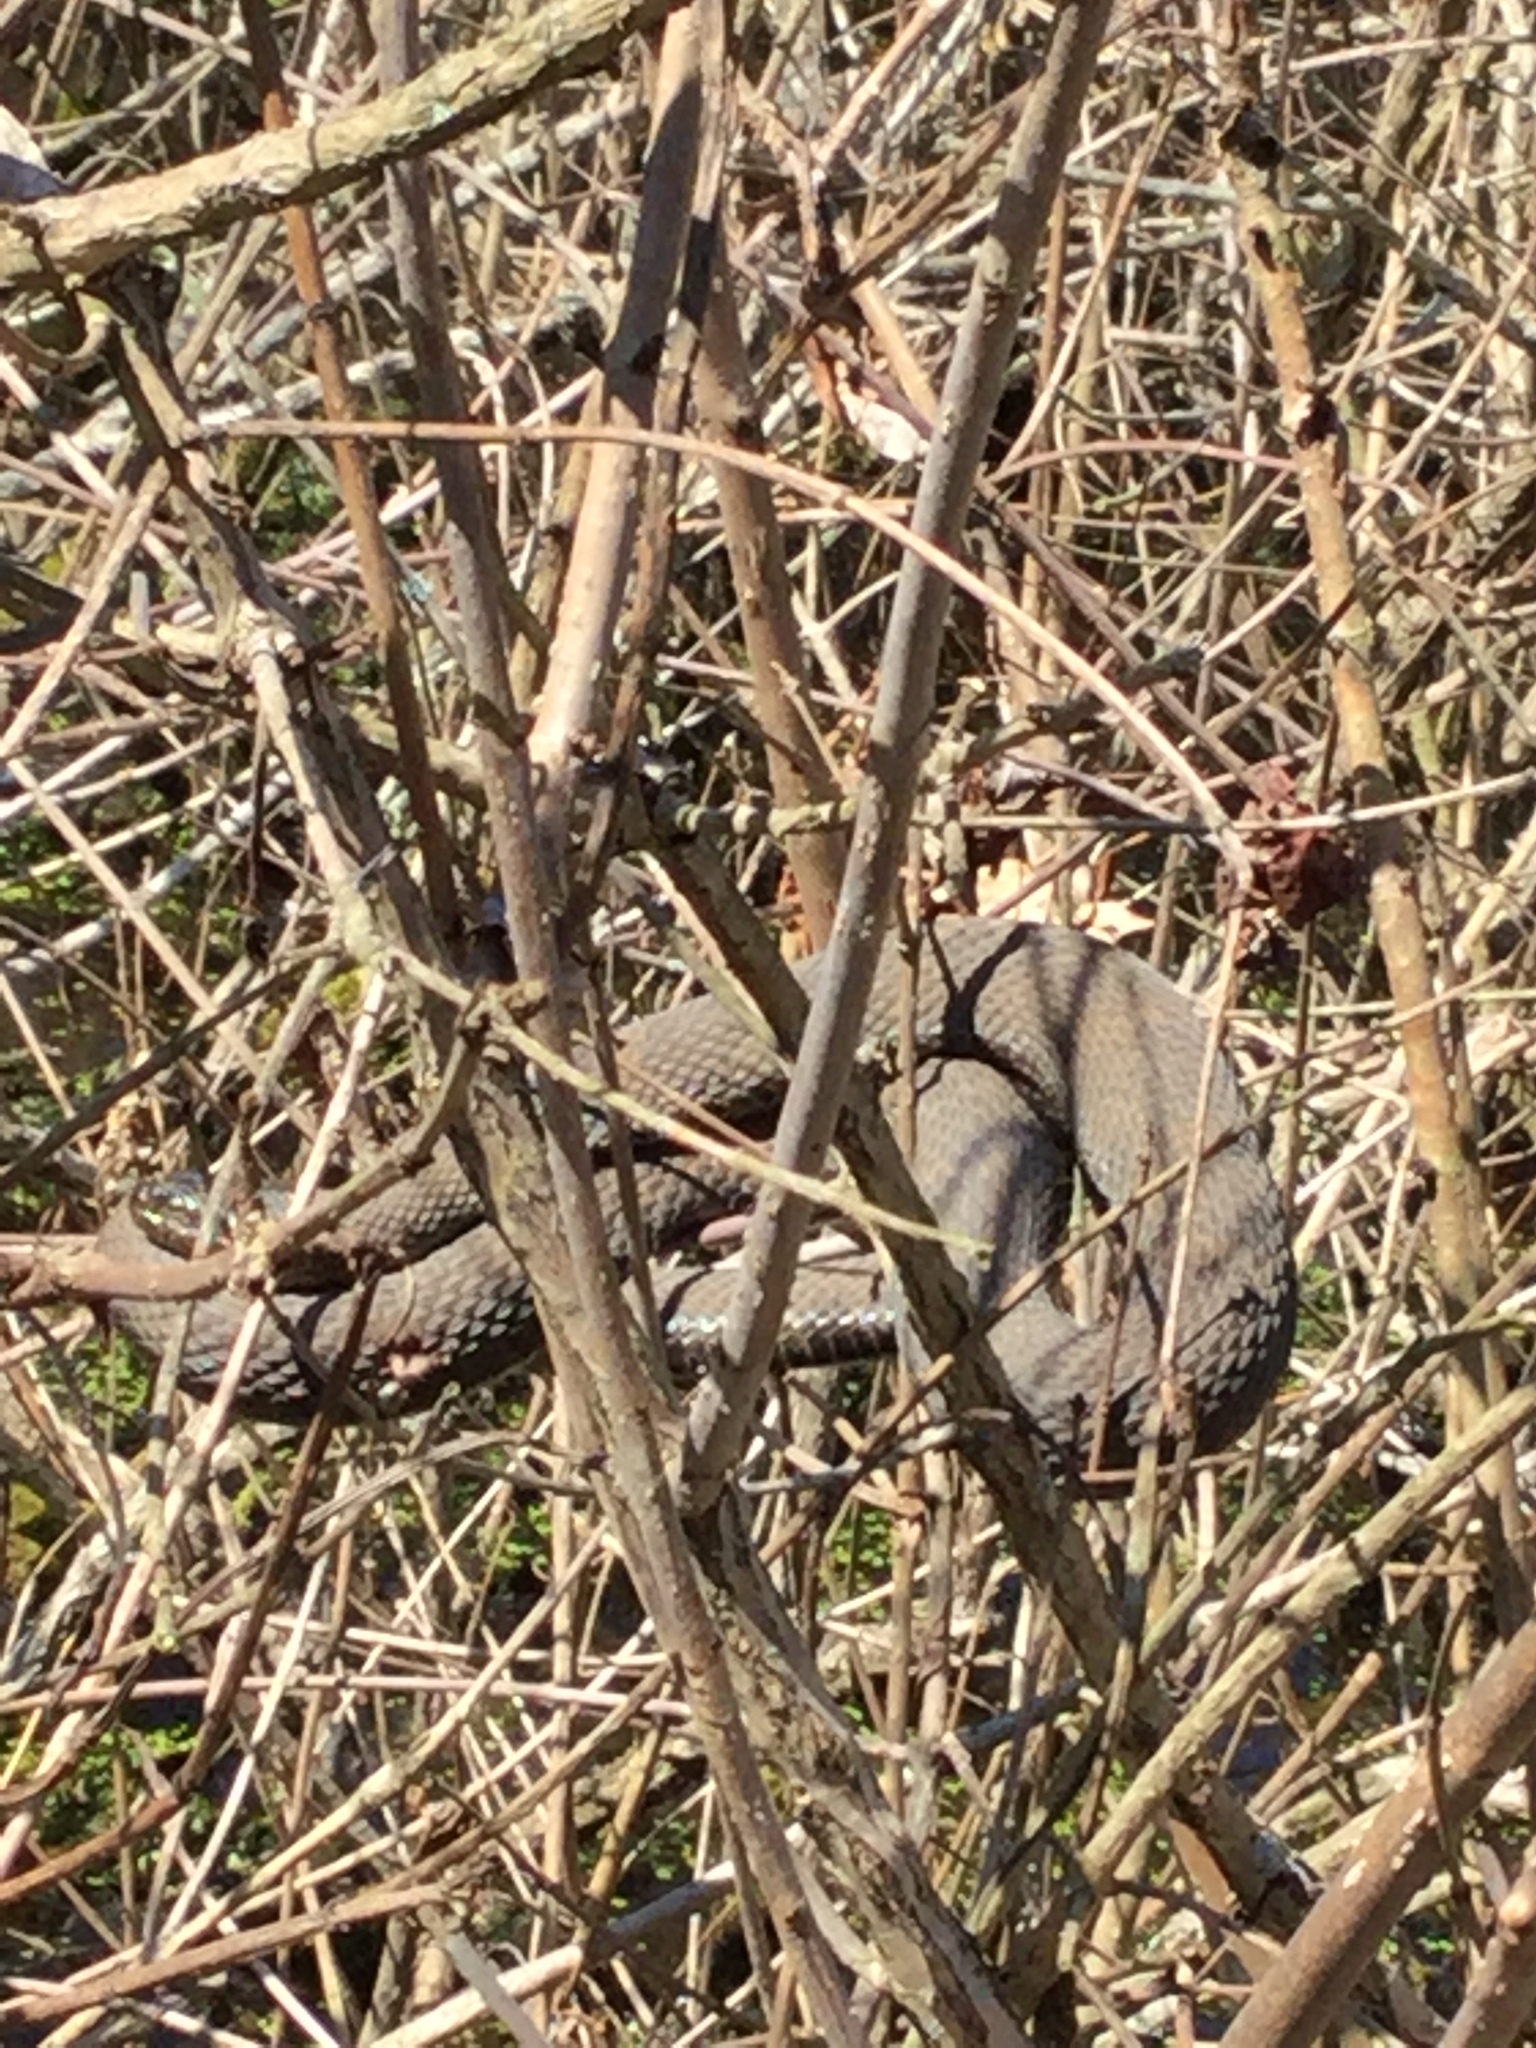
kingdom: Animalia
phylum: Chordata
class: Squamata
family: Colubridae
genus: Nerodia
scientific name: Nerodia sipedon
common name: Northern water snake
